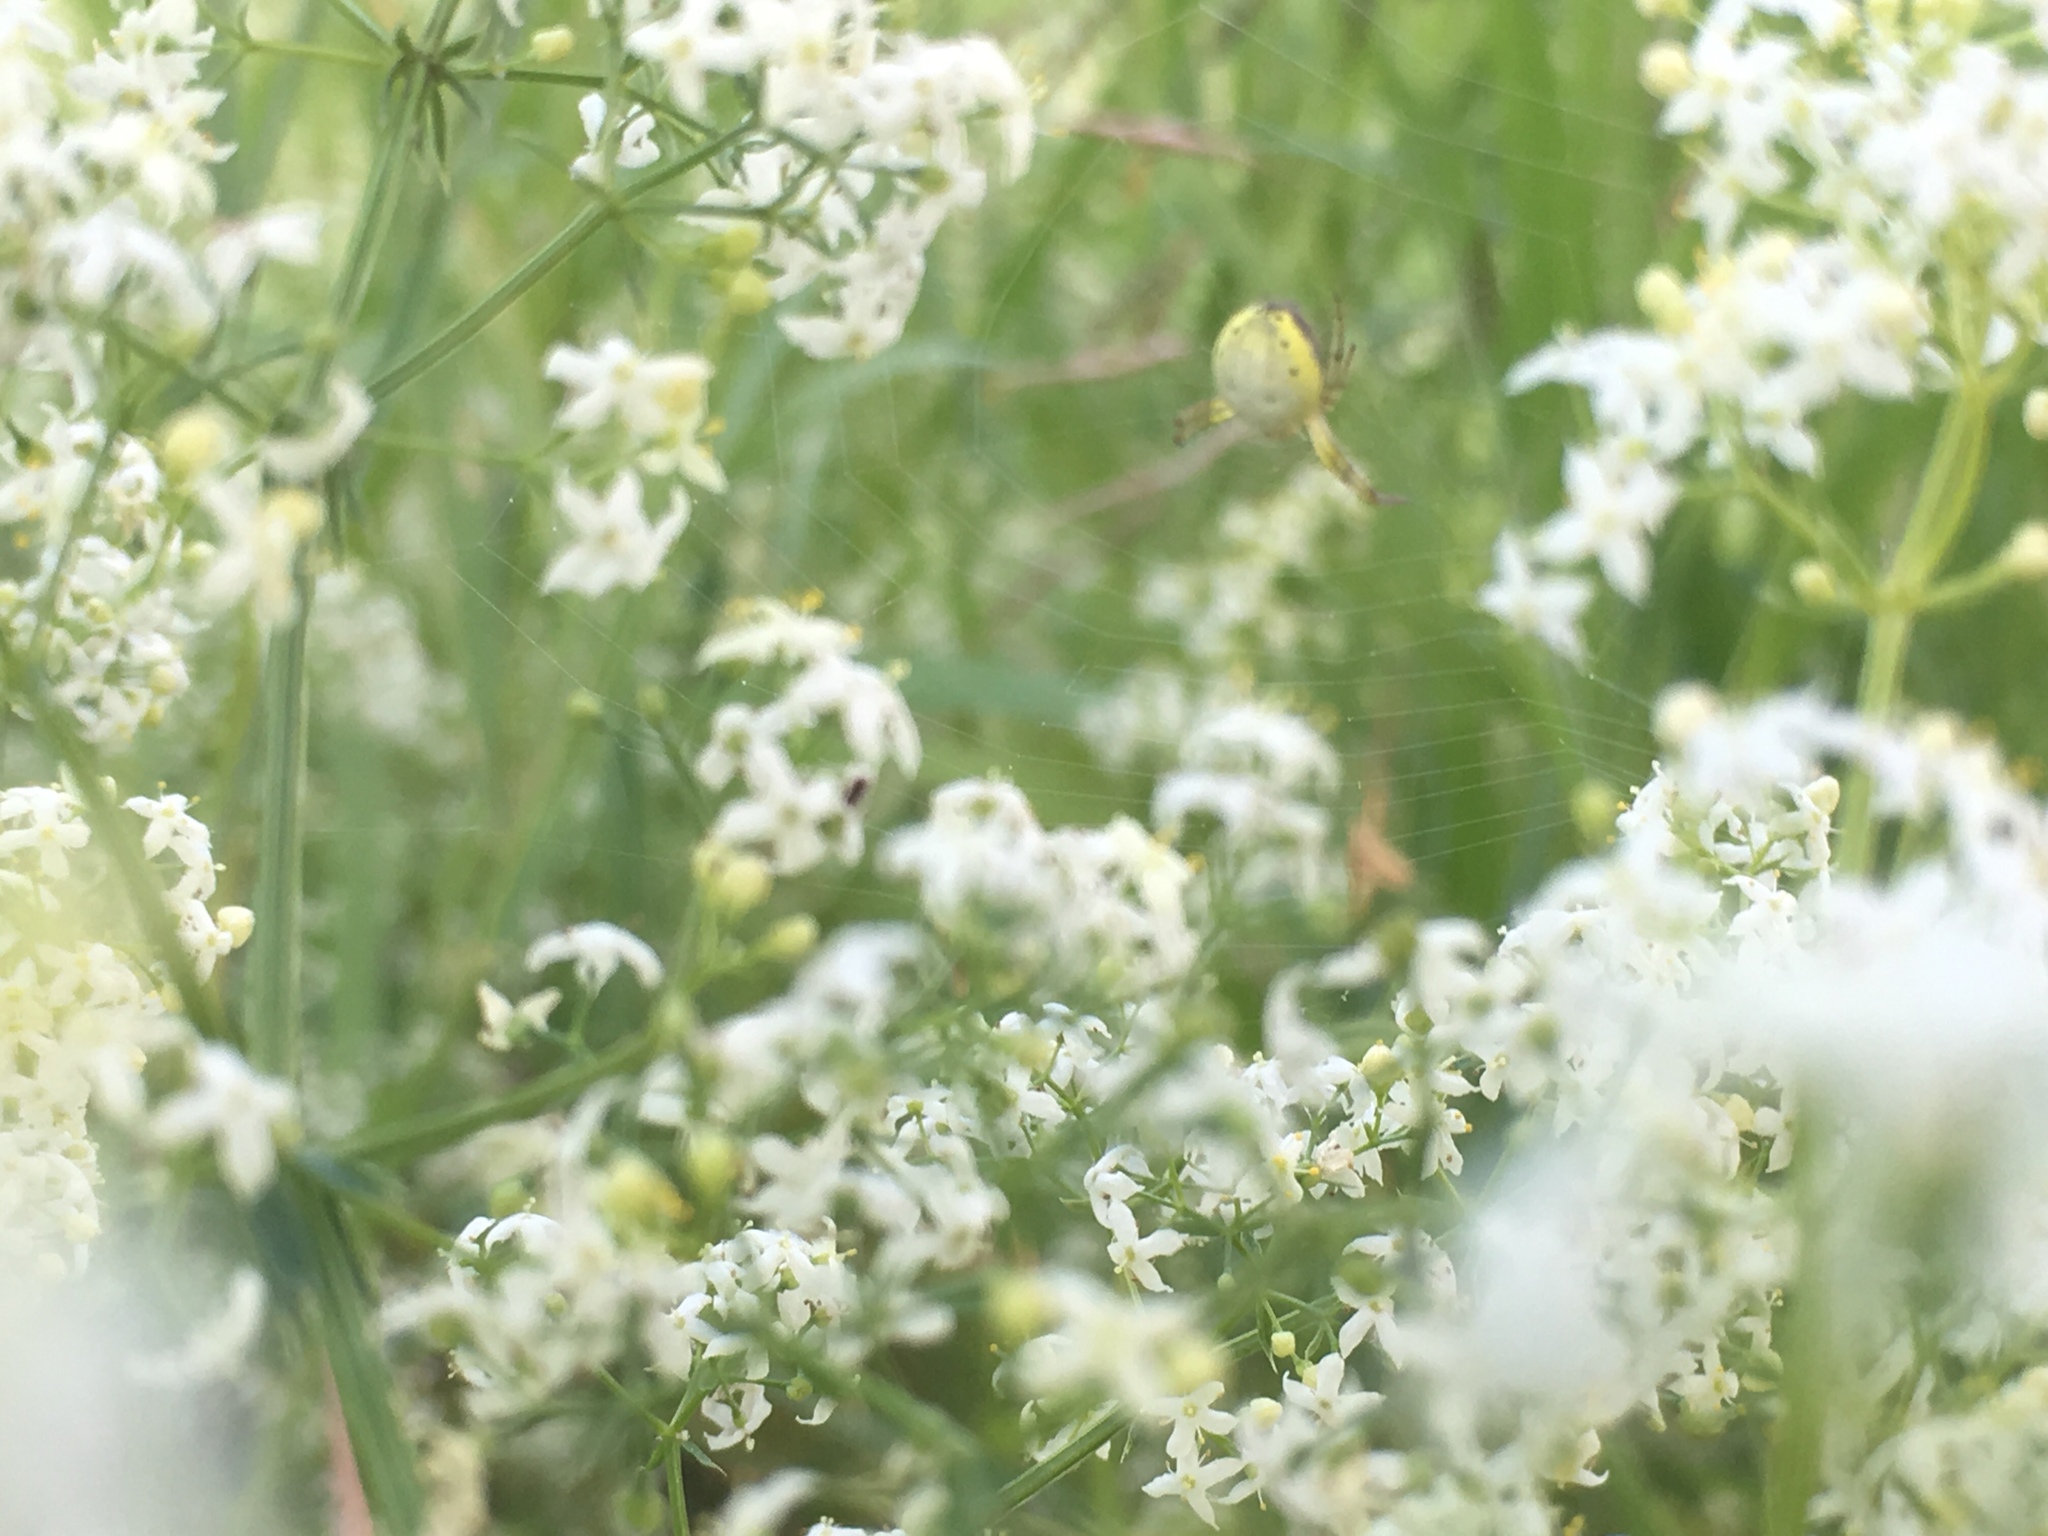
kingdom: Animalia
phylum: Arthropoda
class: Arachnida
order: Araneae
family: Araneidae
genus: Araniella
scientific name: Araniella displicata
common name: Sixspotted orb weaver
